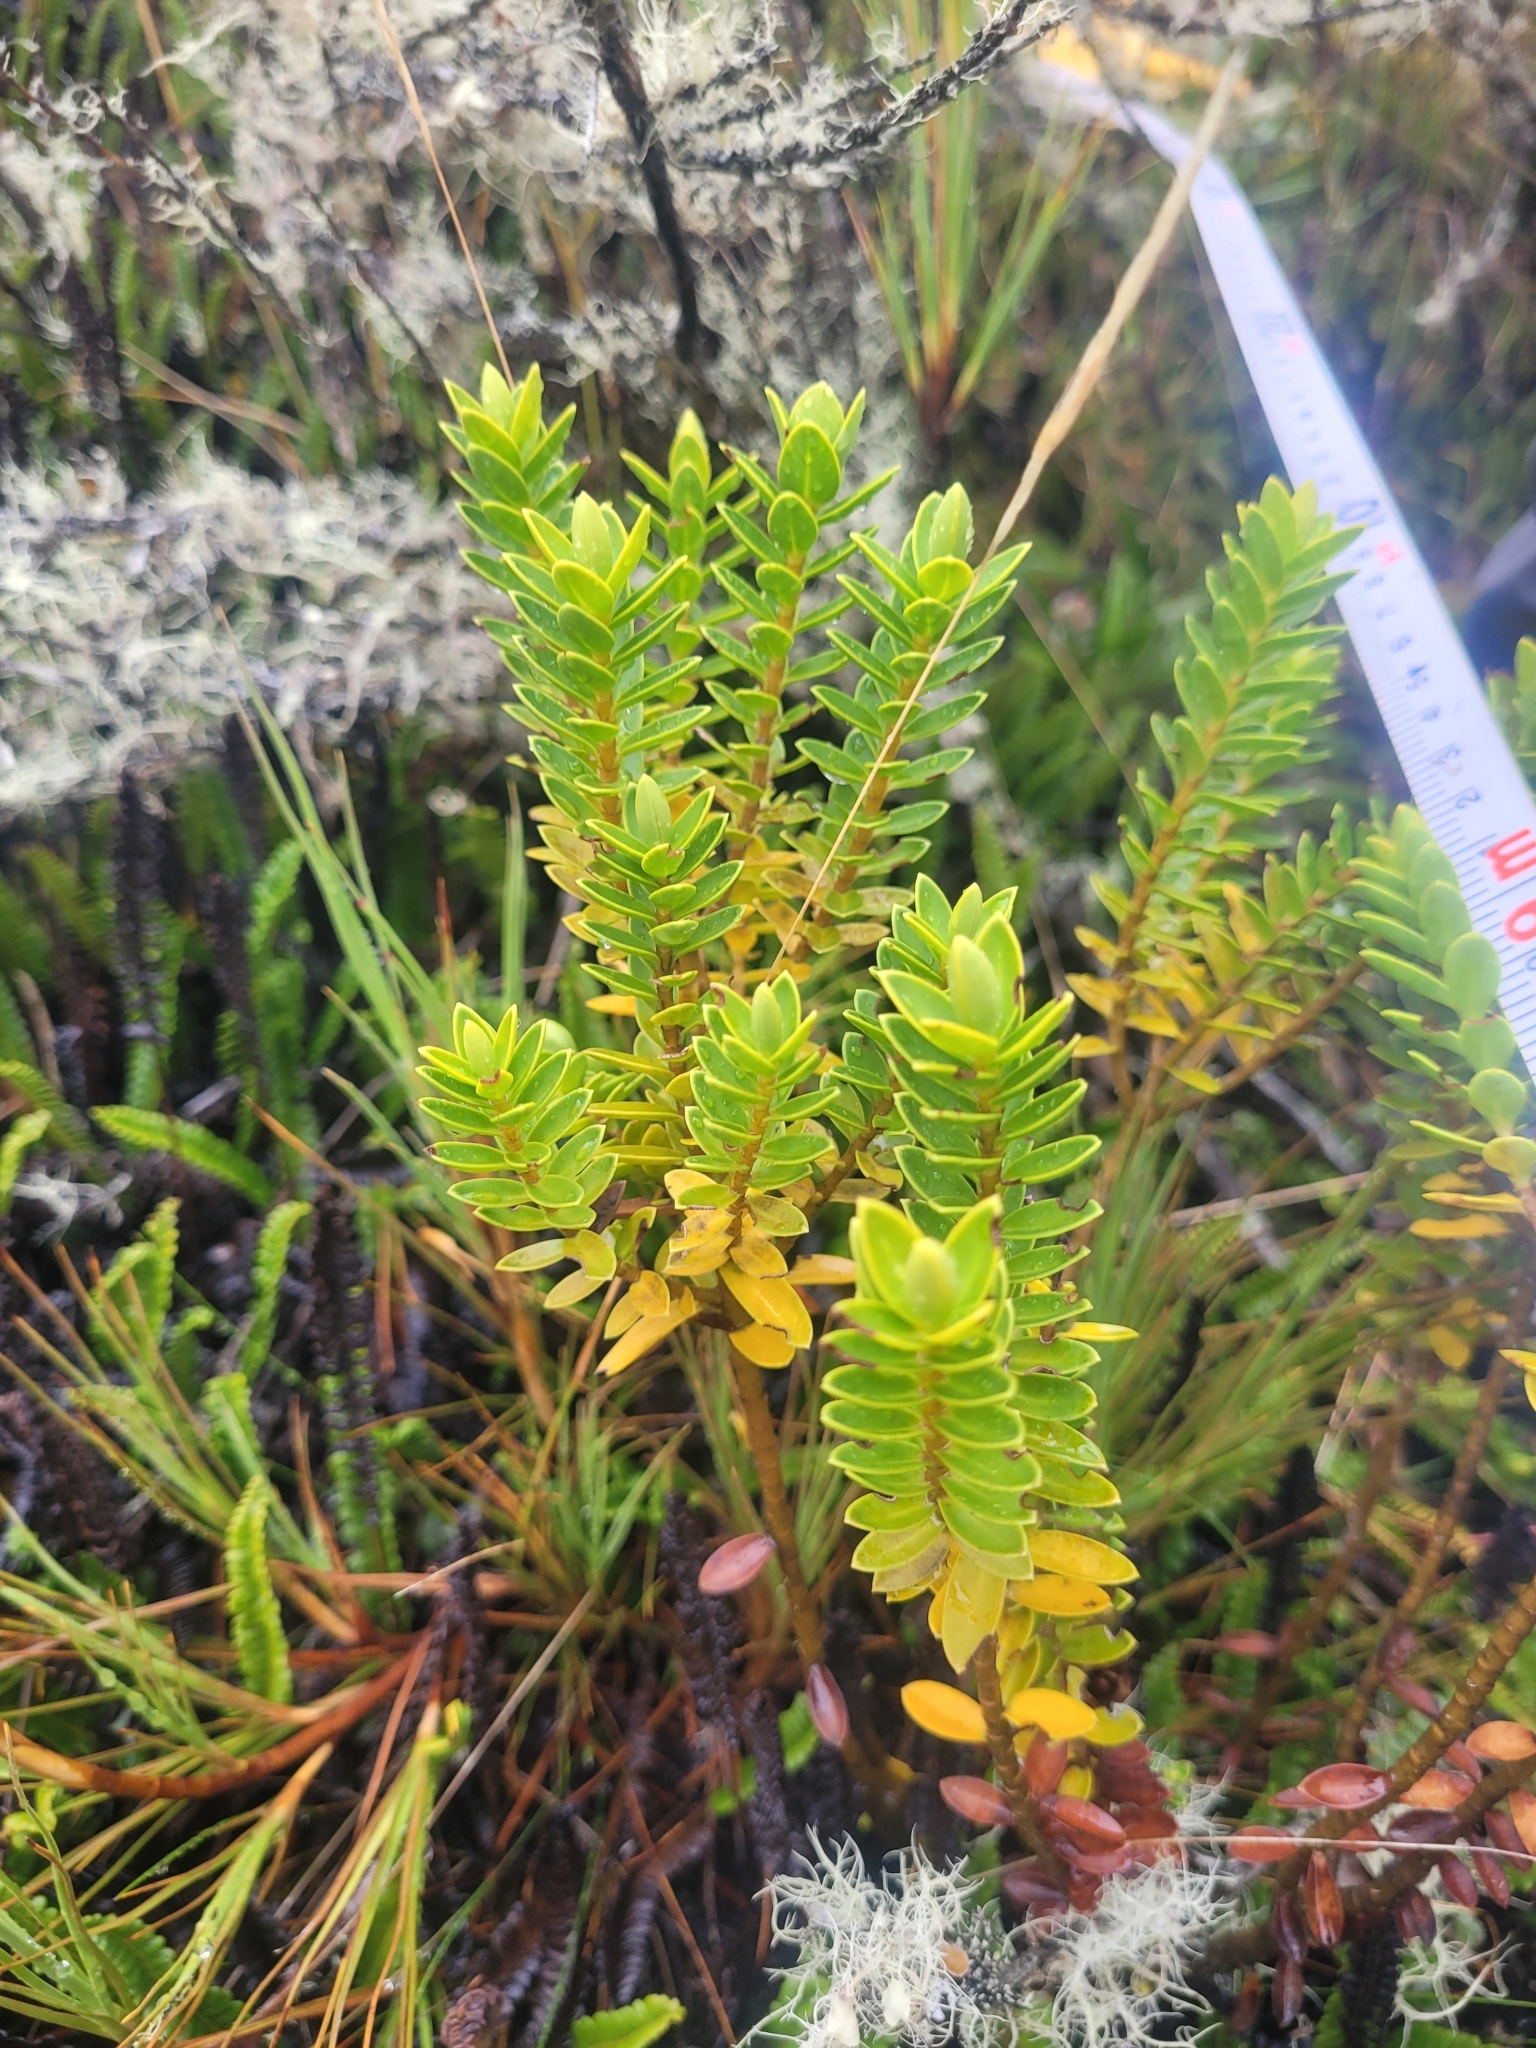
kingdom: Plantae
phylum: Tracheophyta
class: Magnoliopsida
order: Lamiales
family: Plantaginaceae
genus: Veronica
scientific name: Veronica brachysiphon
